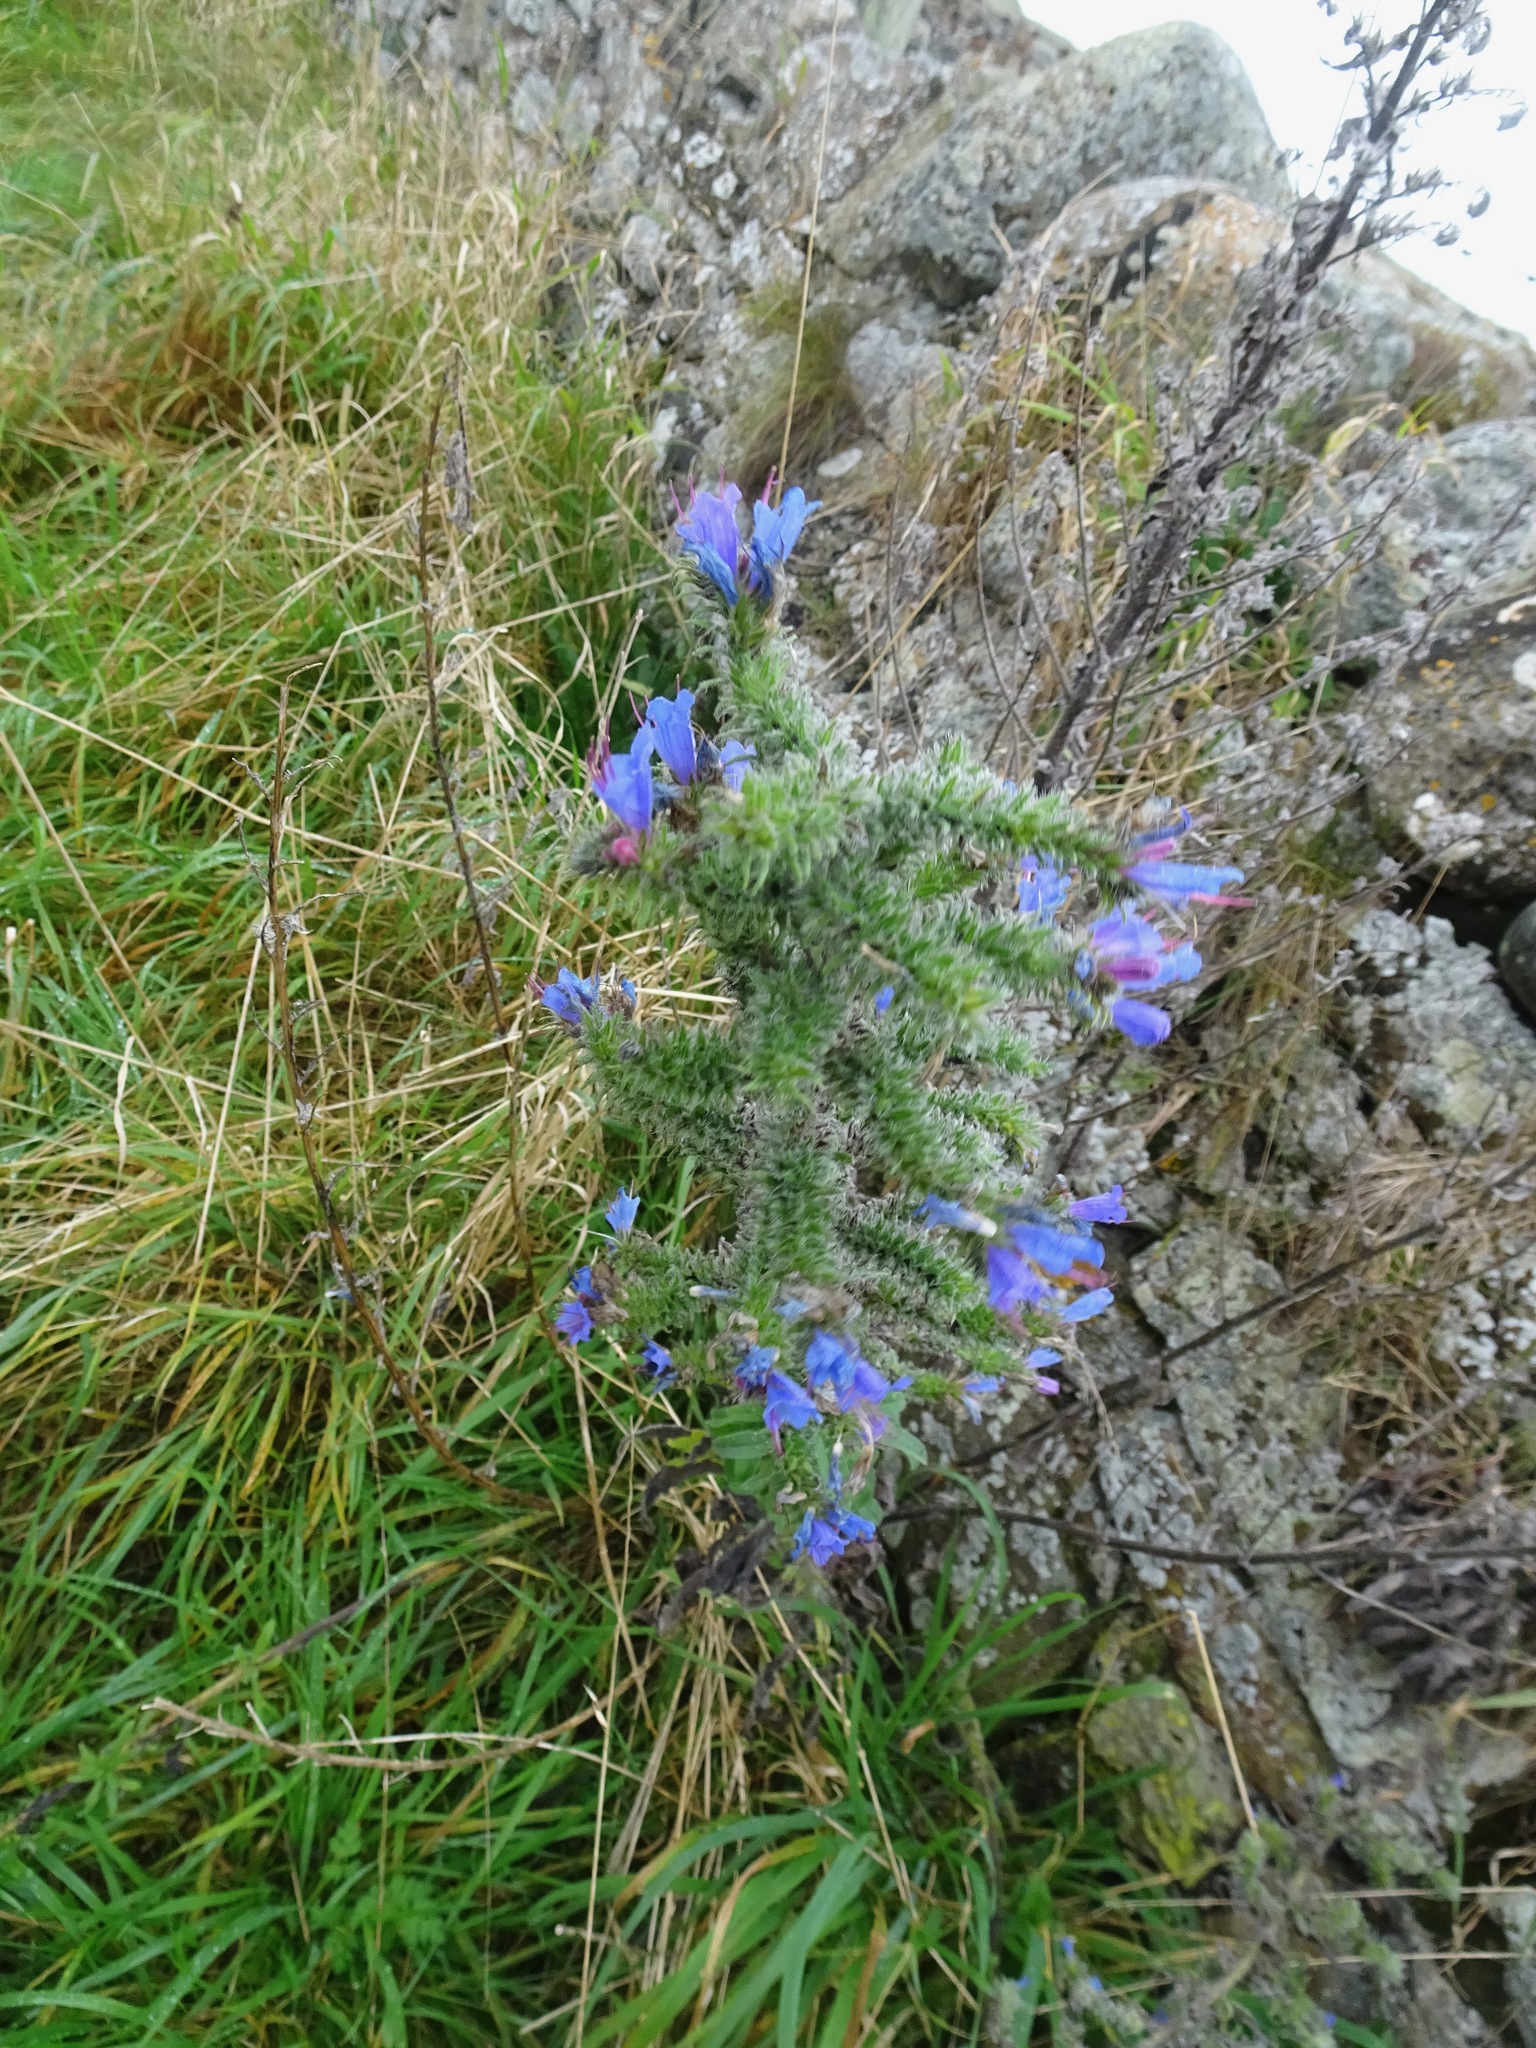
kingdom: Plantae
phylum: Tracheophyta
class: Magnoliopsida
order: Boraginales
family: Boraginaceae
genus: Echium
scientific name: Echium vulgare
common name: Common viper's bugloss
